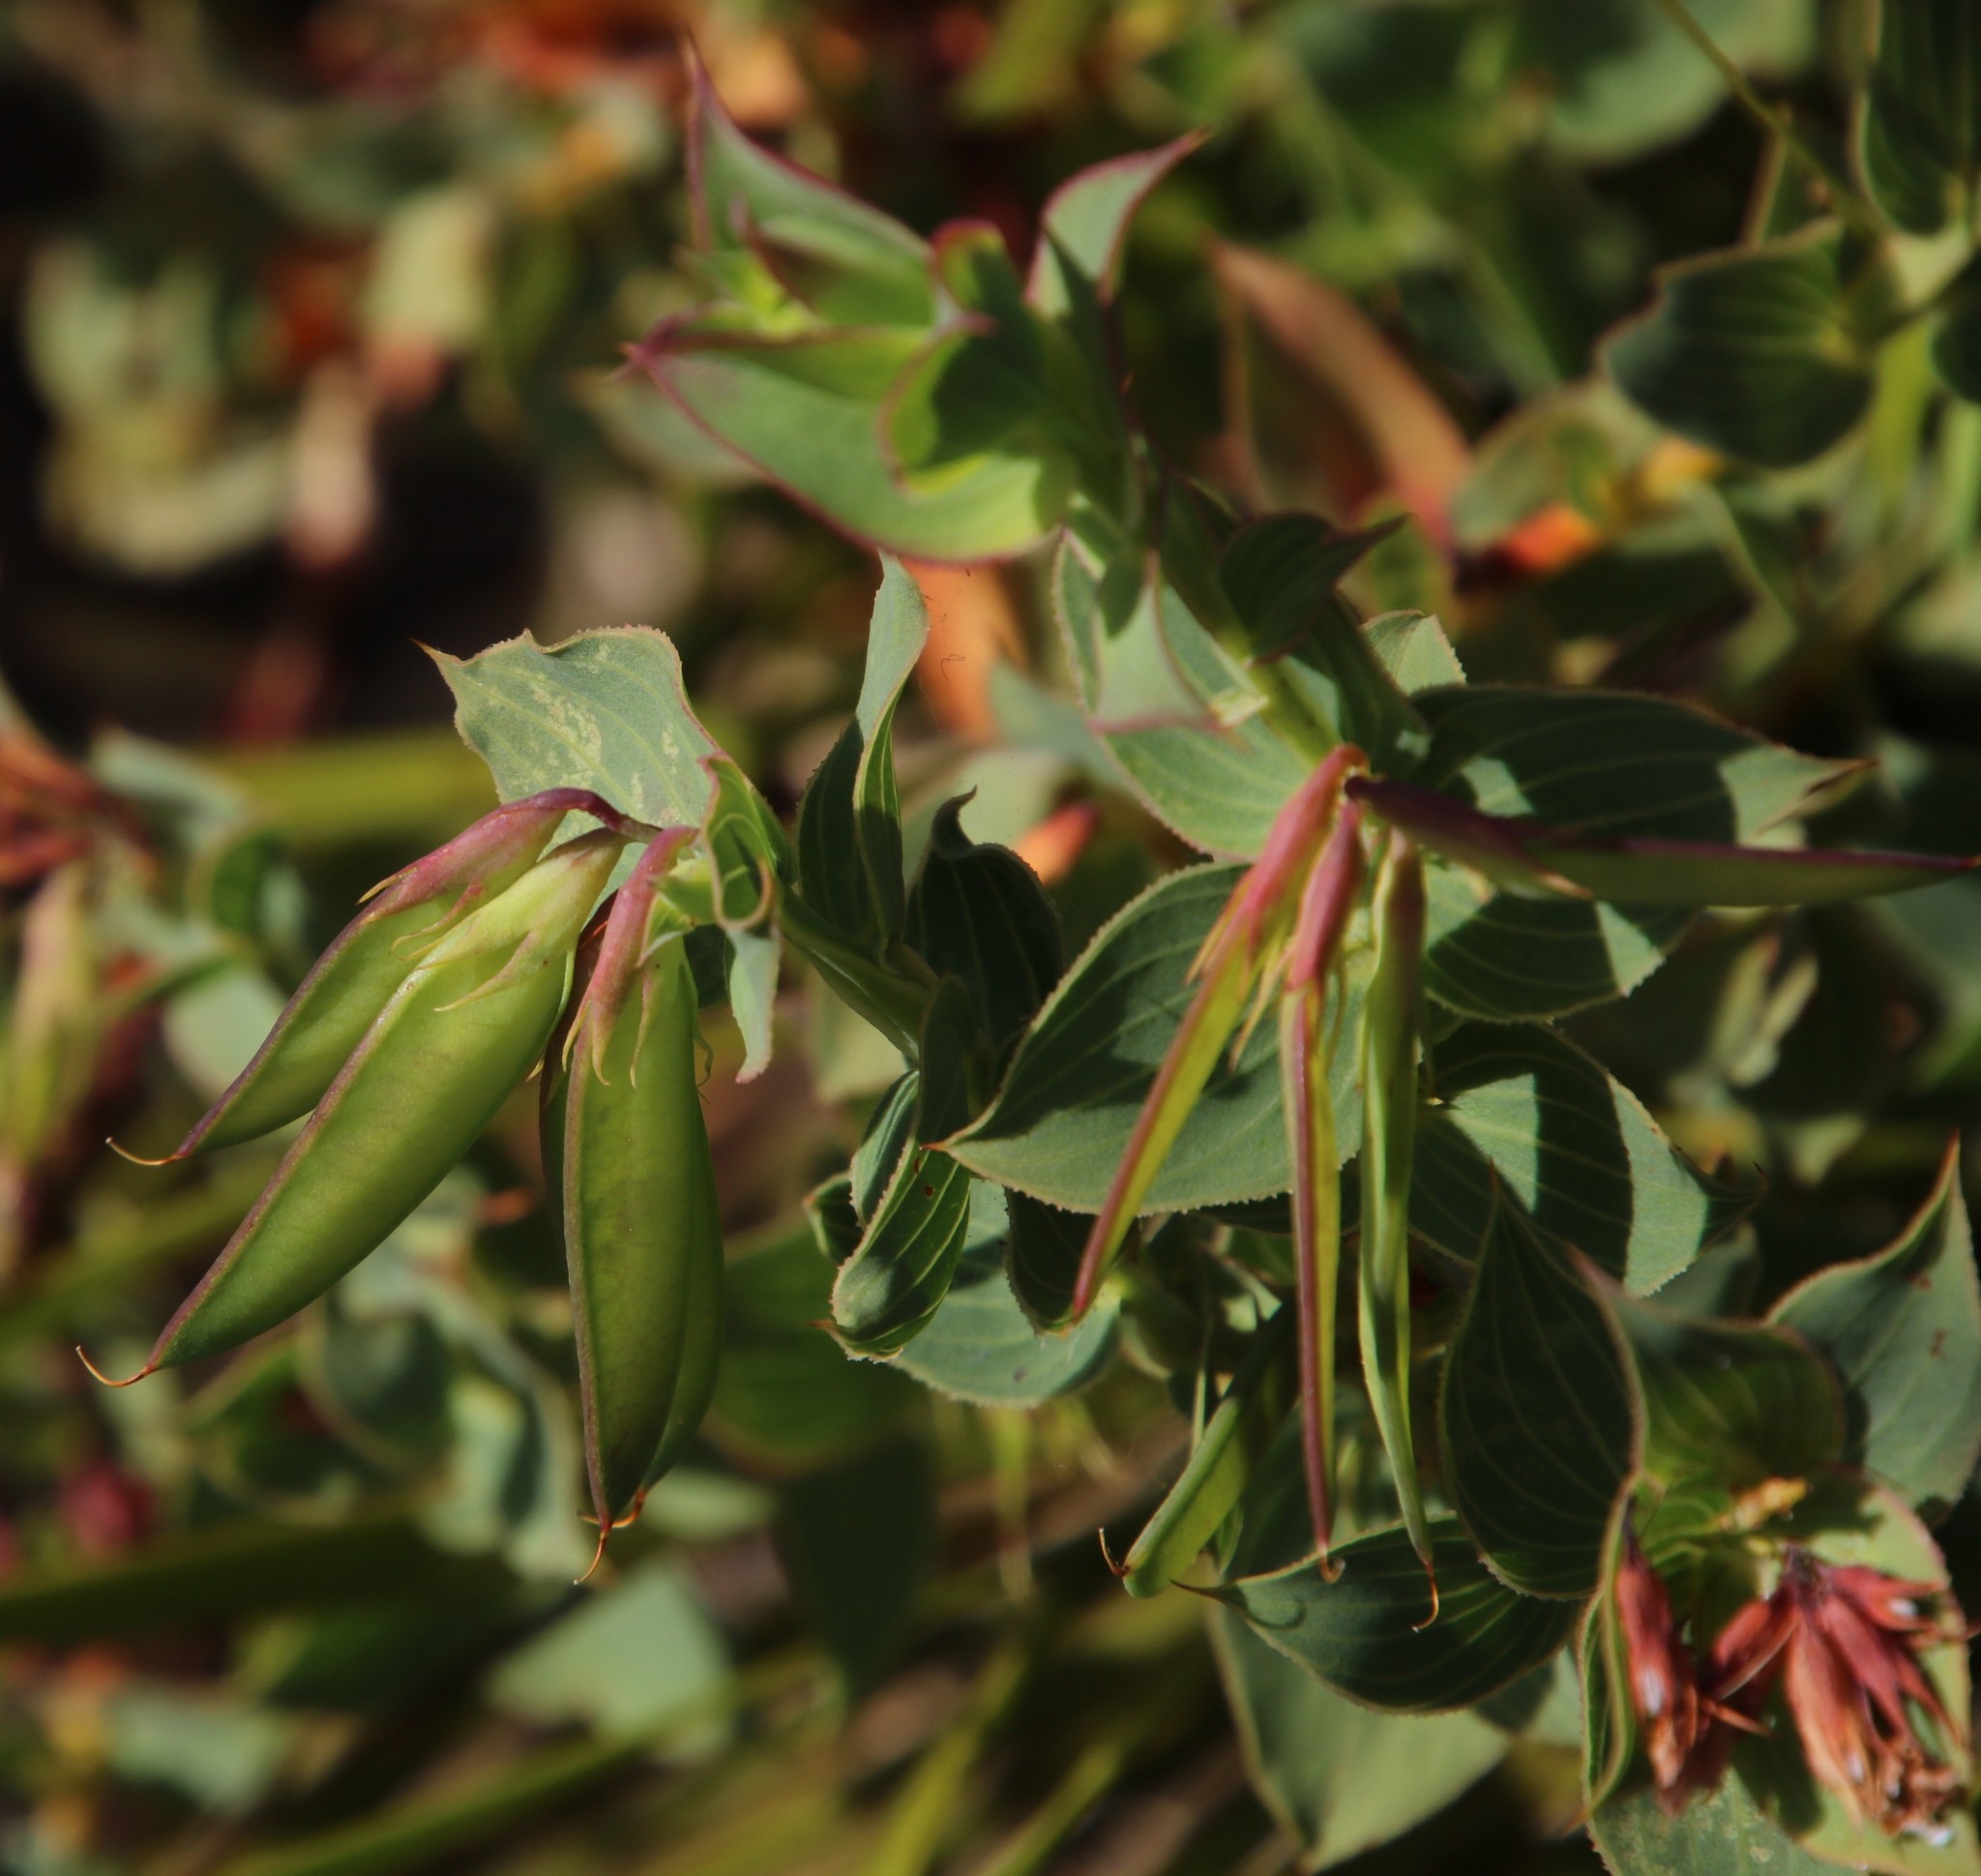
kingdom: Plantae
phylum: Tracheophyta
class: Magnoliopsida
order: Fabales
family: Fabaceae
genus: Aspalathus
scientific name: Aspalathus crenata
